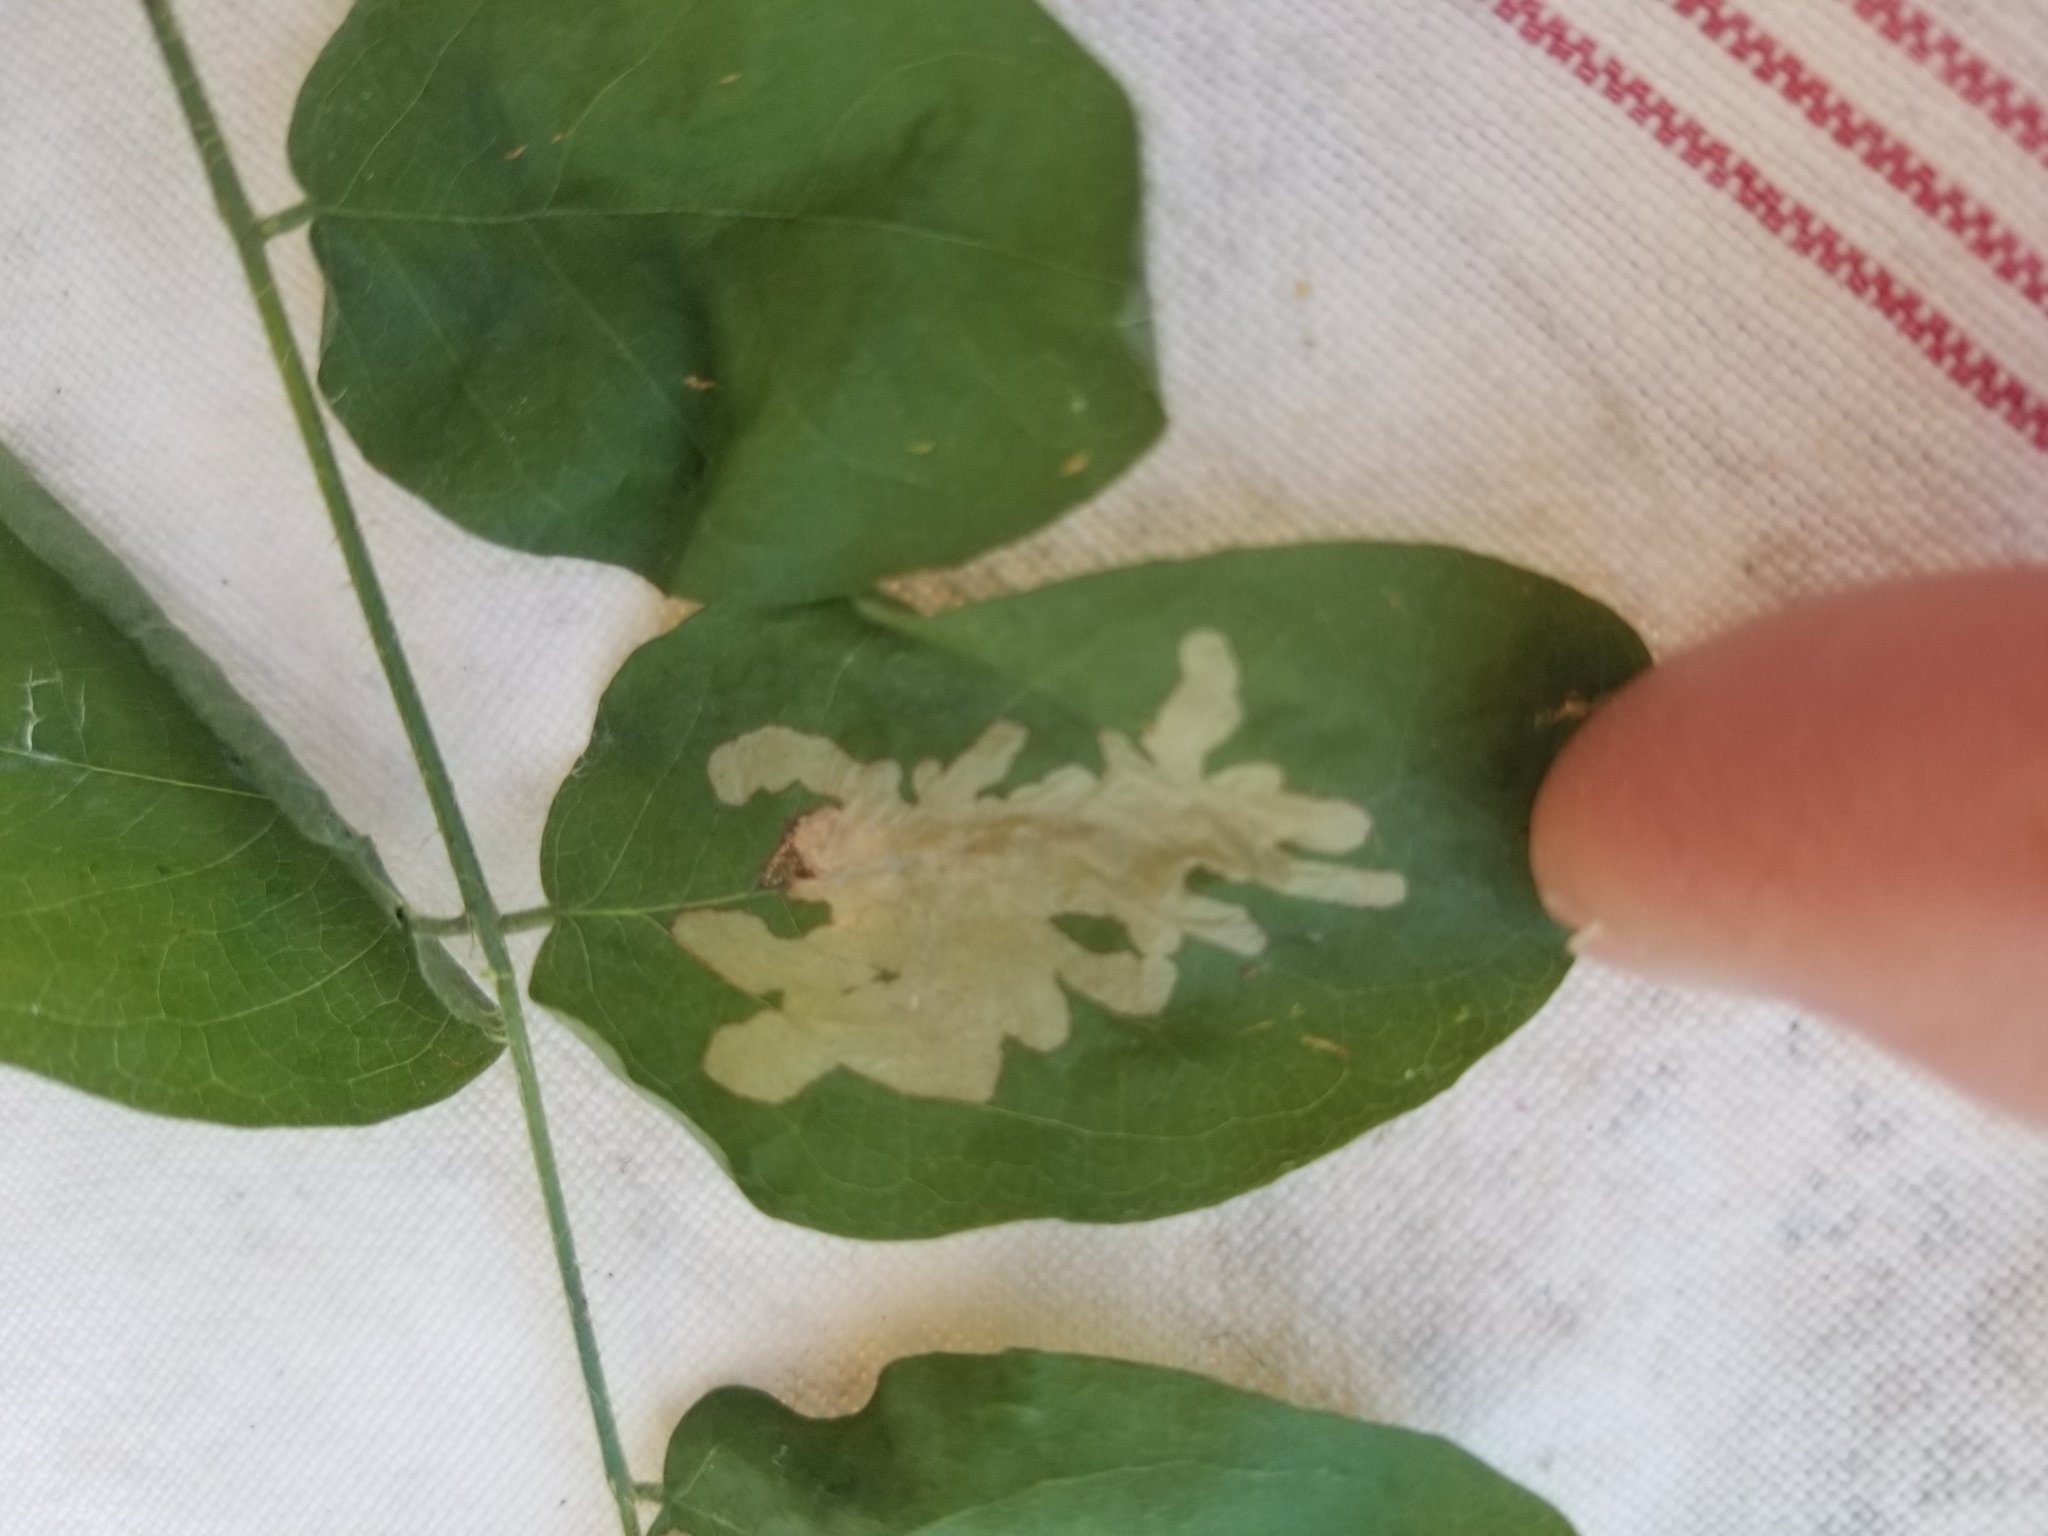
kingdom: Plantae
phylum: Tracheophyta
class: Magnoliopsida
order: Fabales
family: Fabaceae
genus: Robinia
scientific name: Robinia pseudoacacia
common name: Black locust
